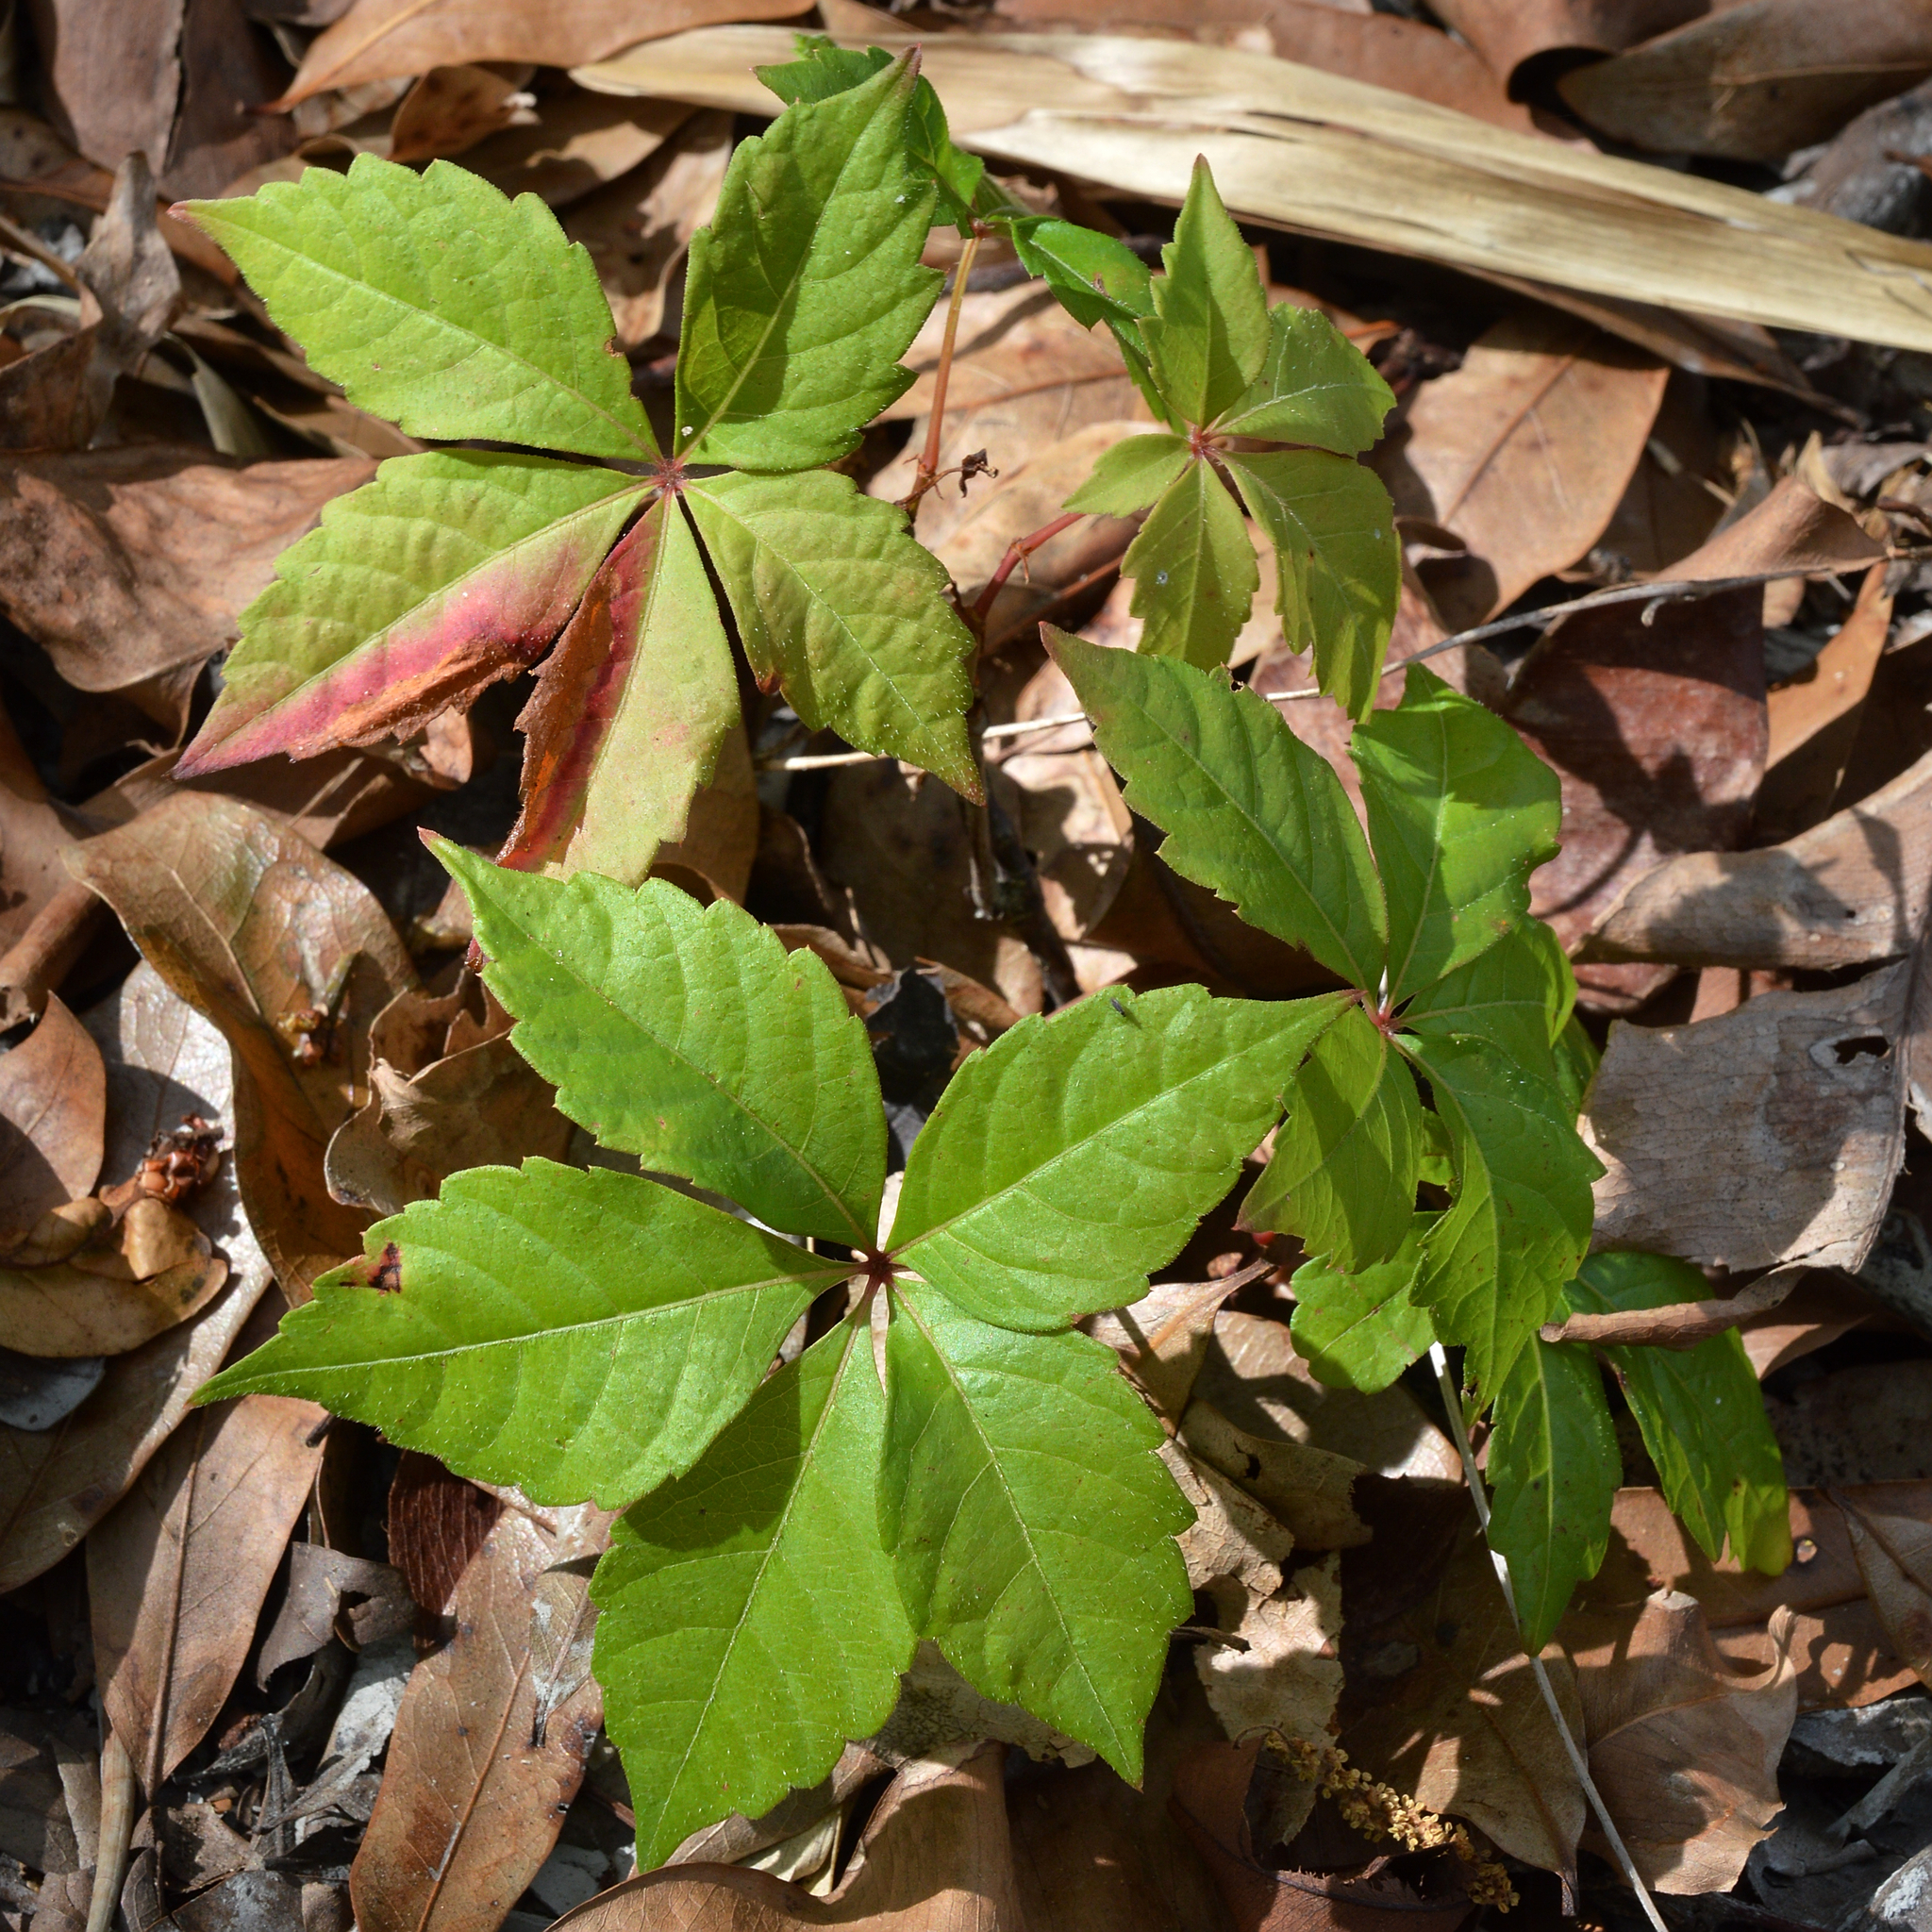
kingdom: Plantae
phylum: Tracheophyta
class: Magnoliopsida
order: Vitales
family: Vitaceae
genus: Parthenocissus
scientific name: Parthenocissus quinquefolia
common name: Virginia-creeper
